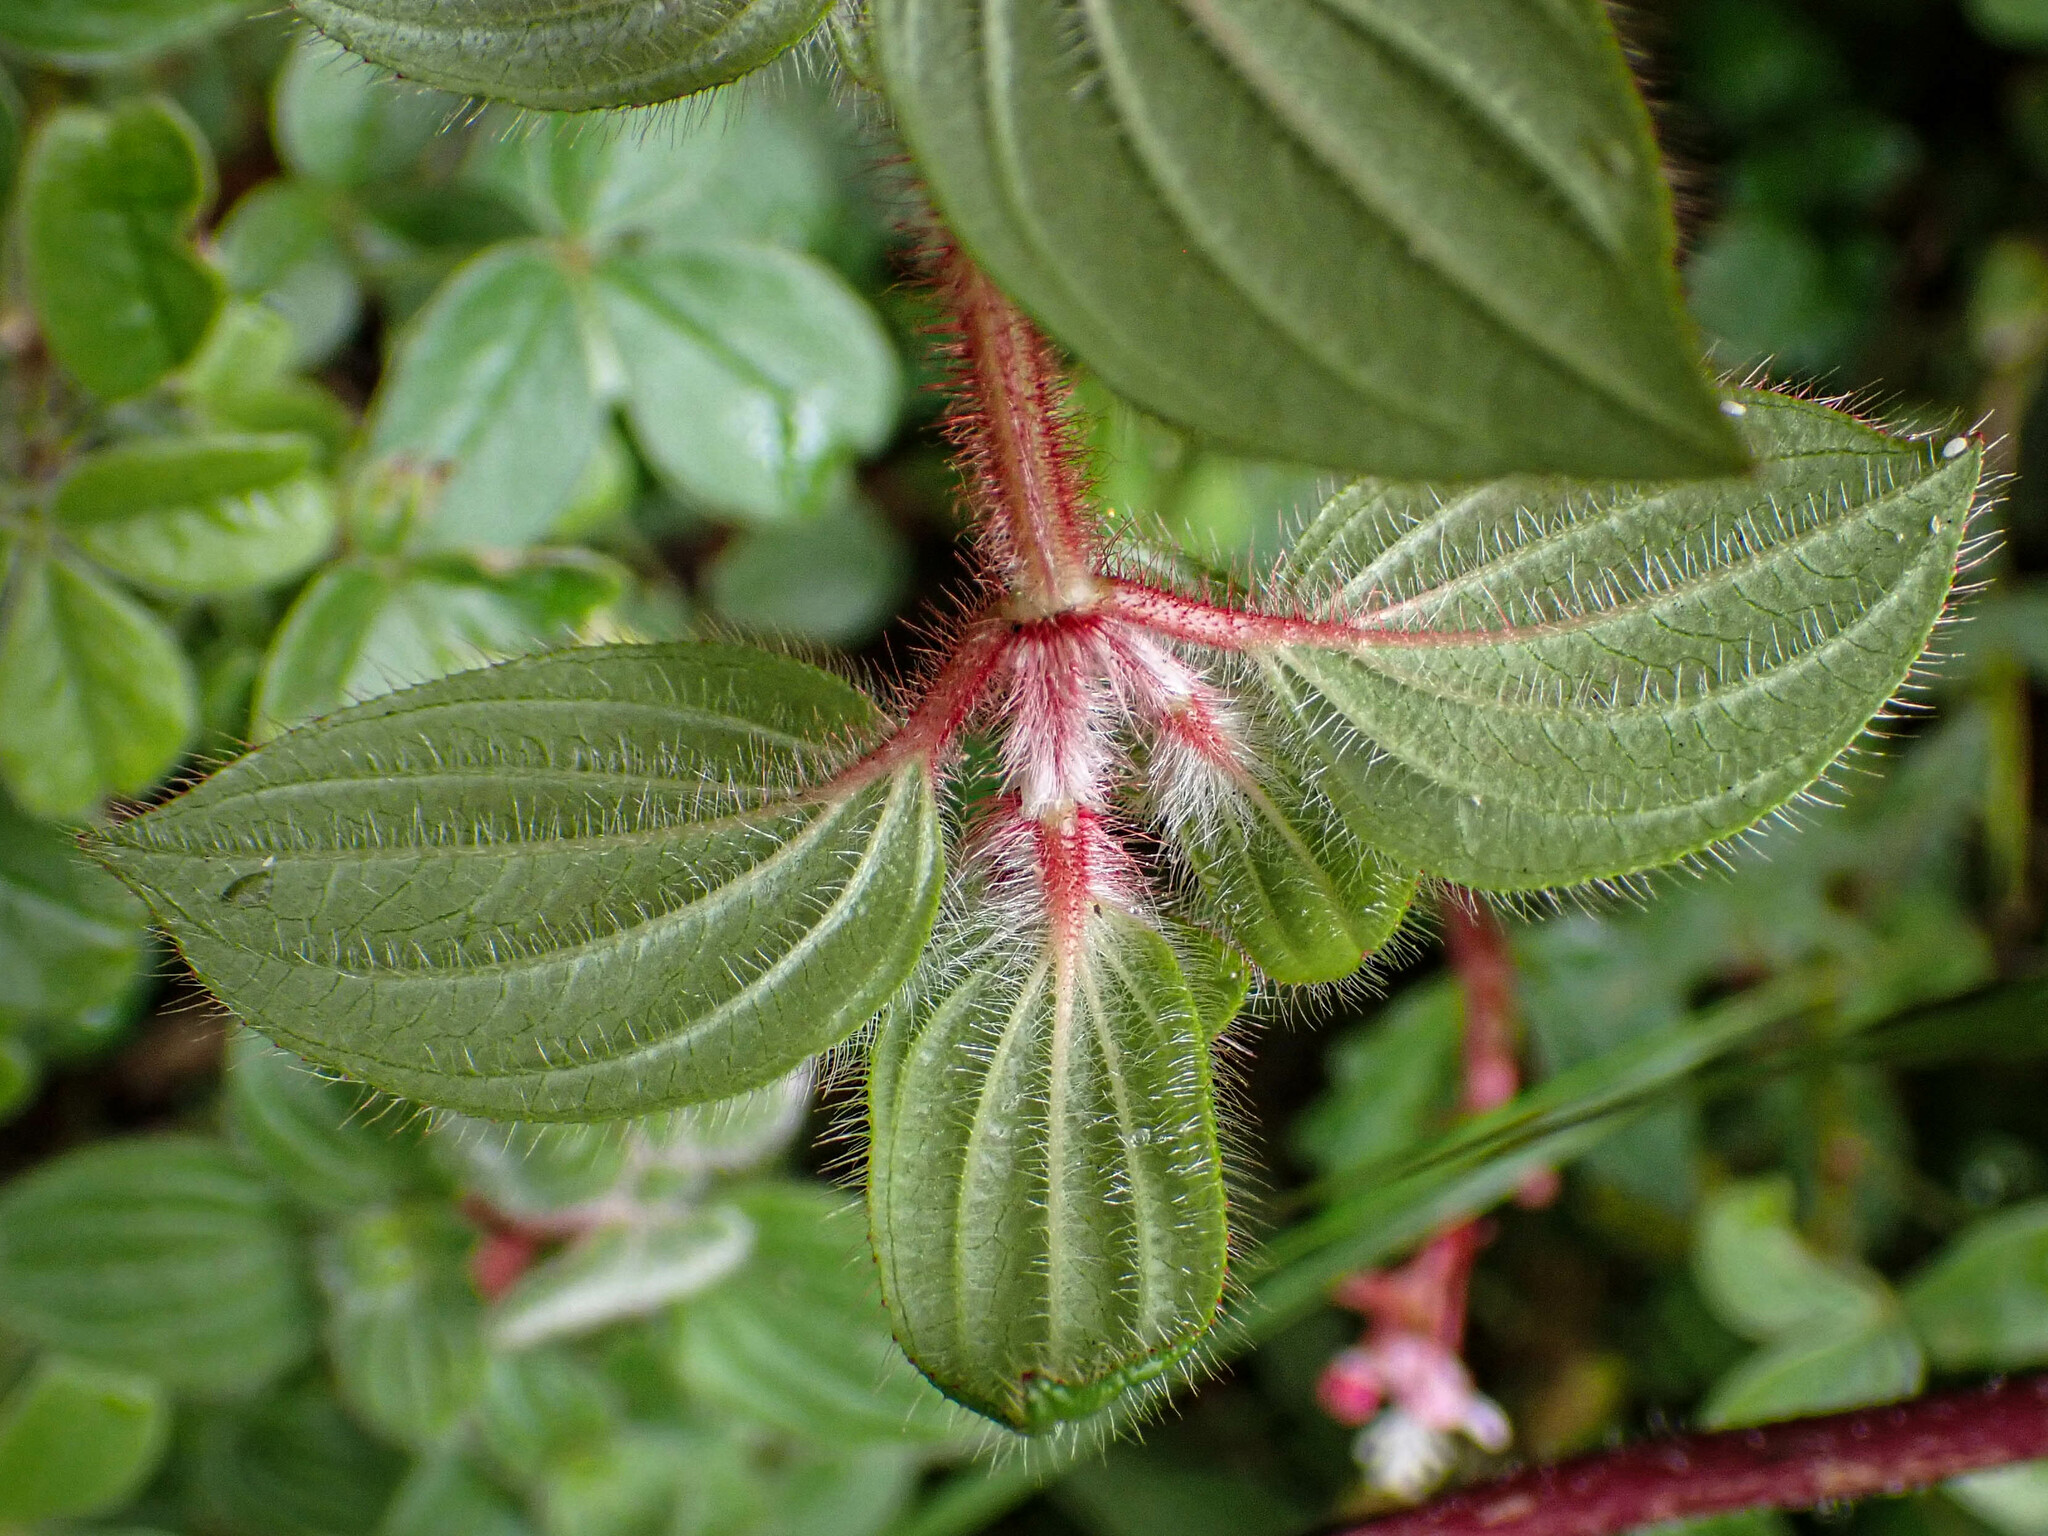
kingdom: Plantae
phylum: Tracheophyta
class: Magnoliopsida
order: Myrtales
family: Melastomataceae
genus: Monochaetum
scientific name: Monochaetum glanduliferum
